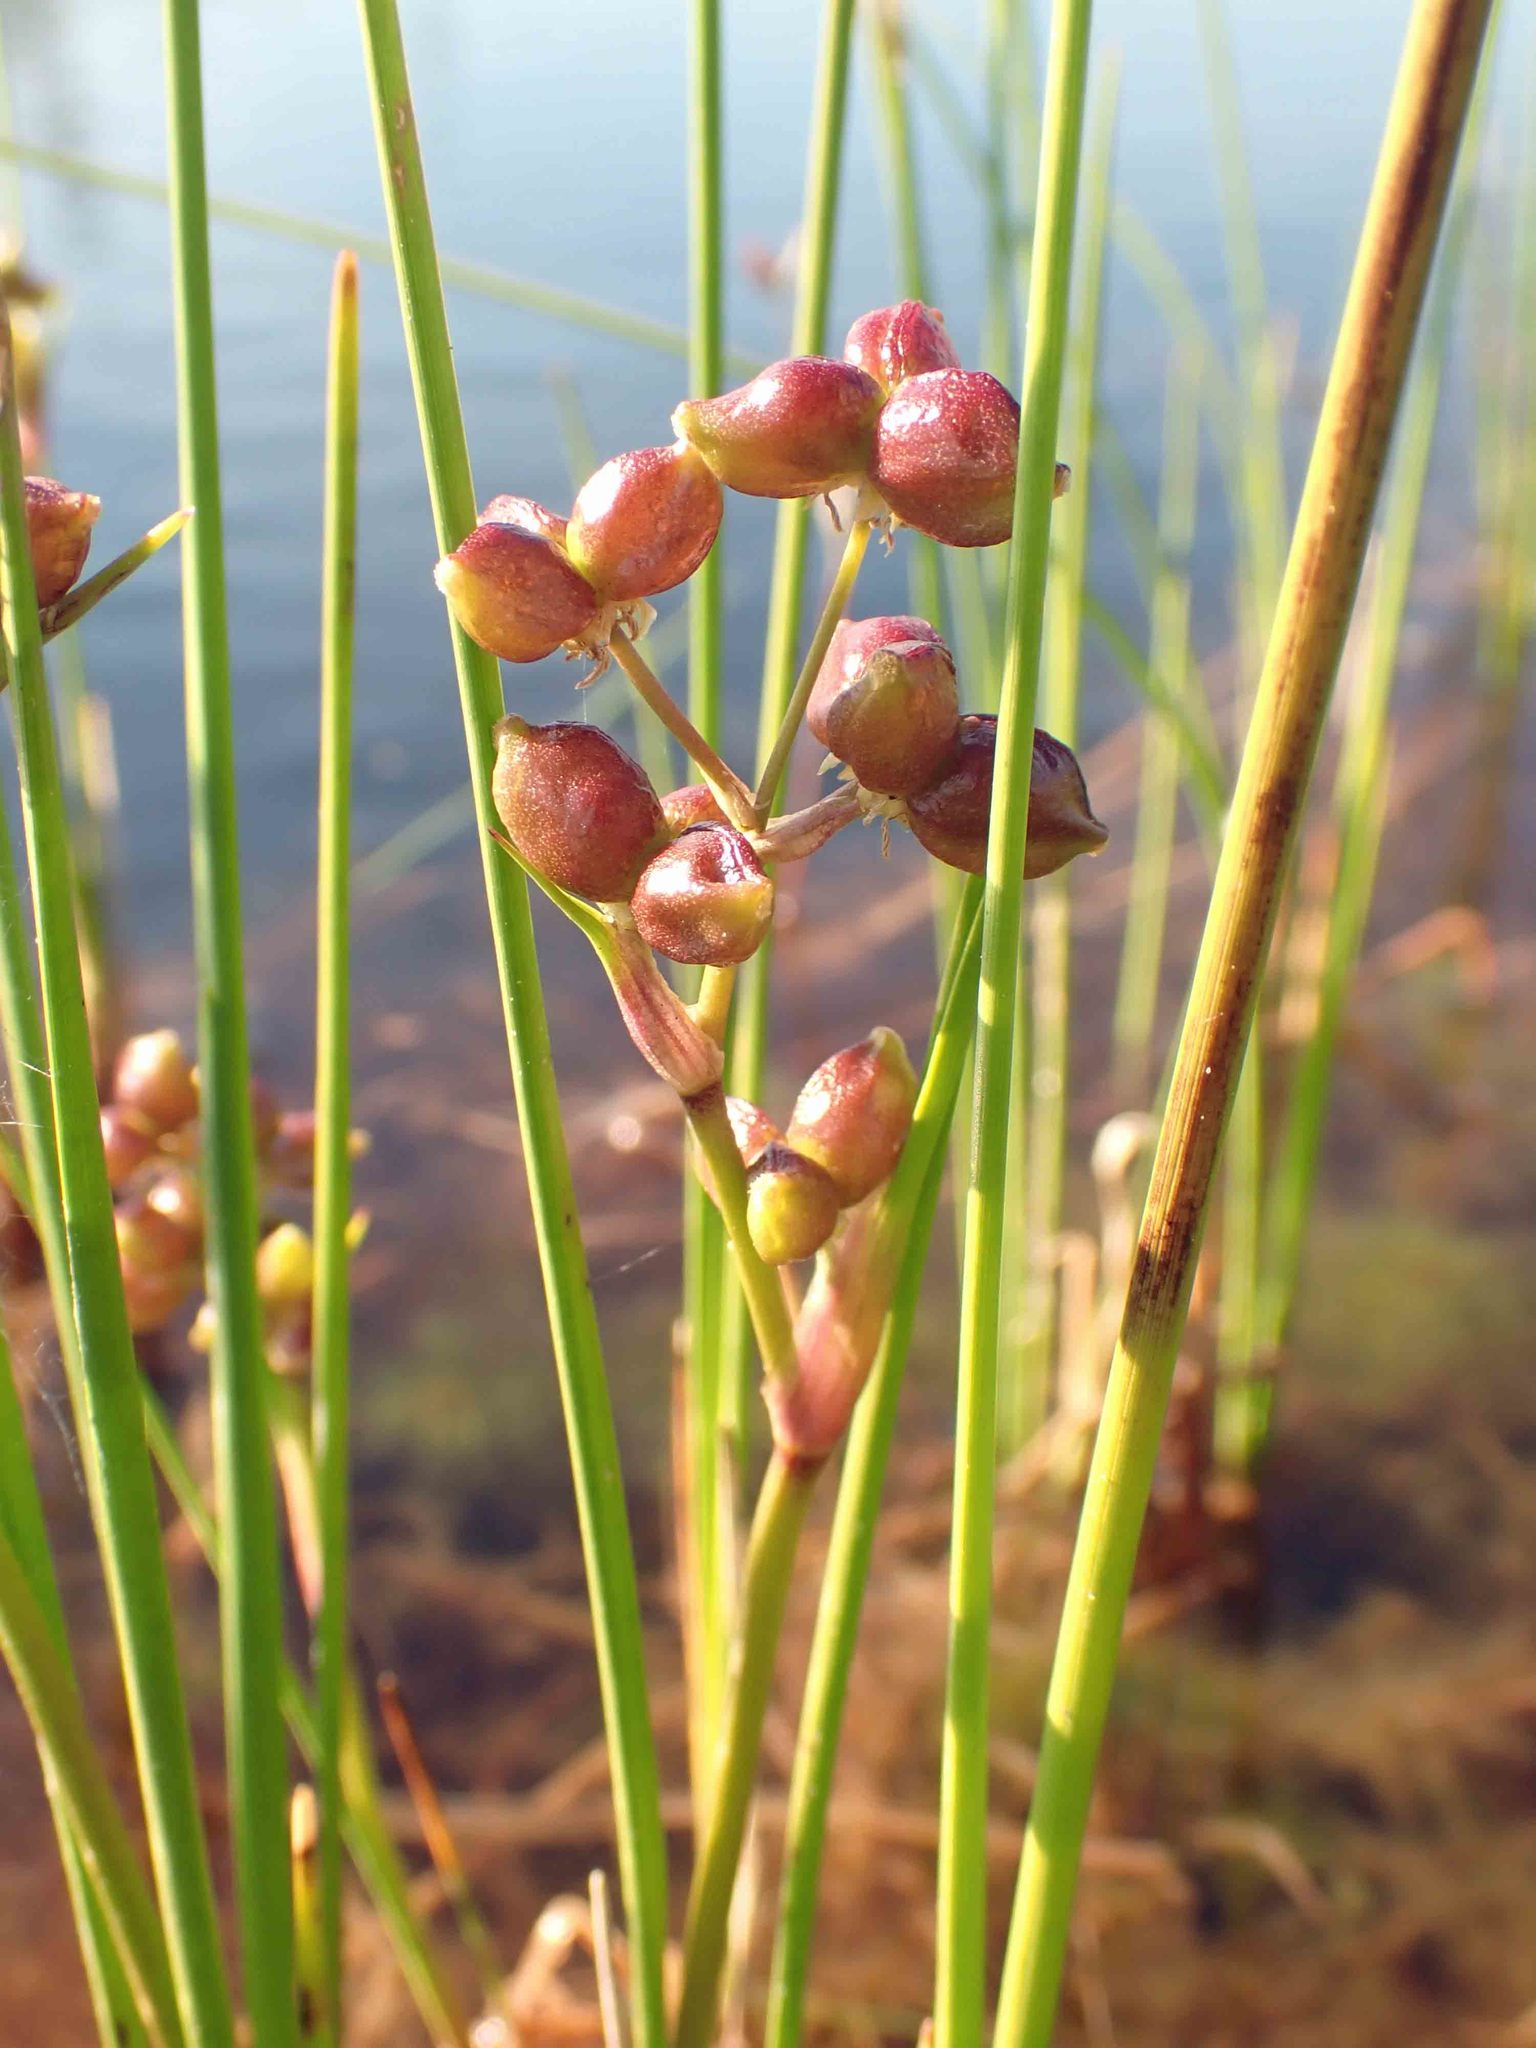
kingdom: Plantae
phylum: Tracheophyta
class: Liliopsida
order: Alismatales
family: Scheuchzeriaceae
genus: Scheuchzeria
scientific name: Scheuchzeria palustris
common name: Rannoch-rush
